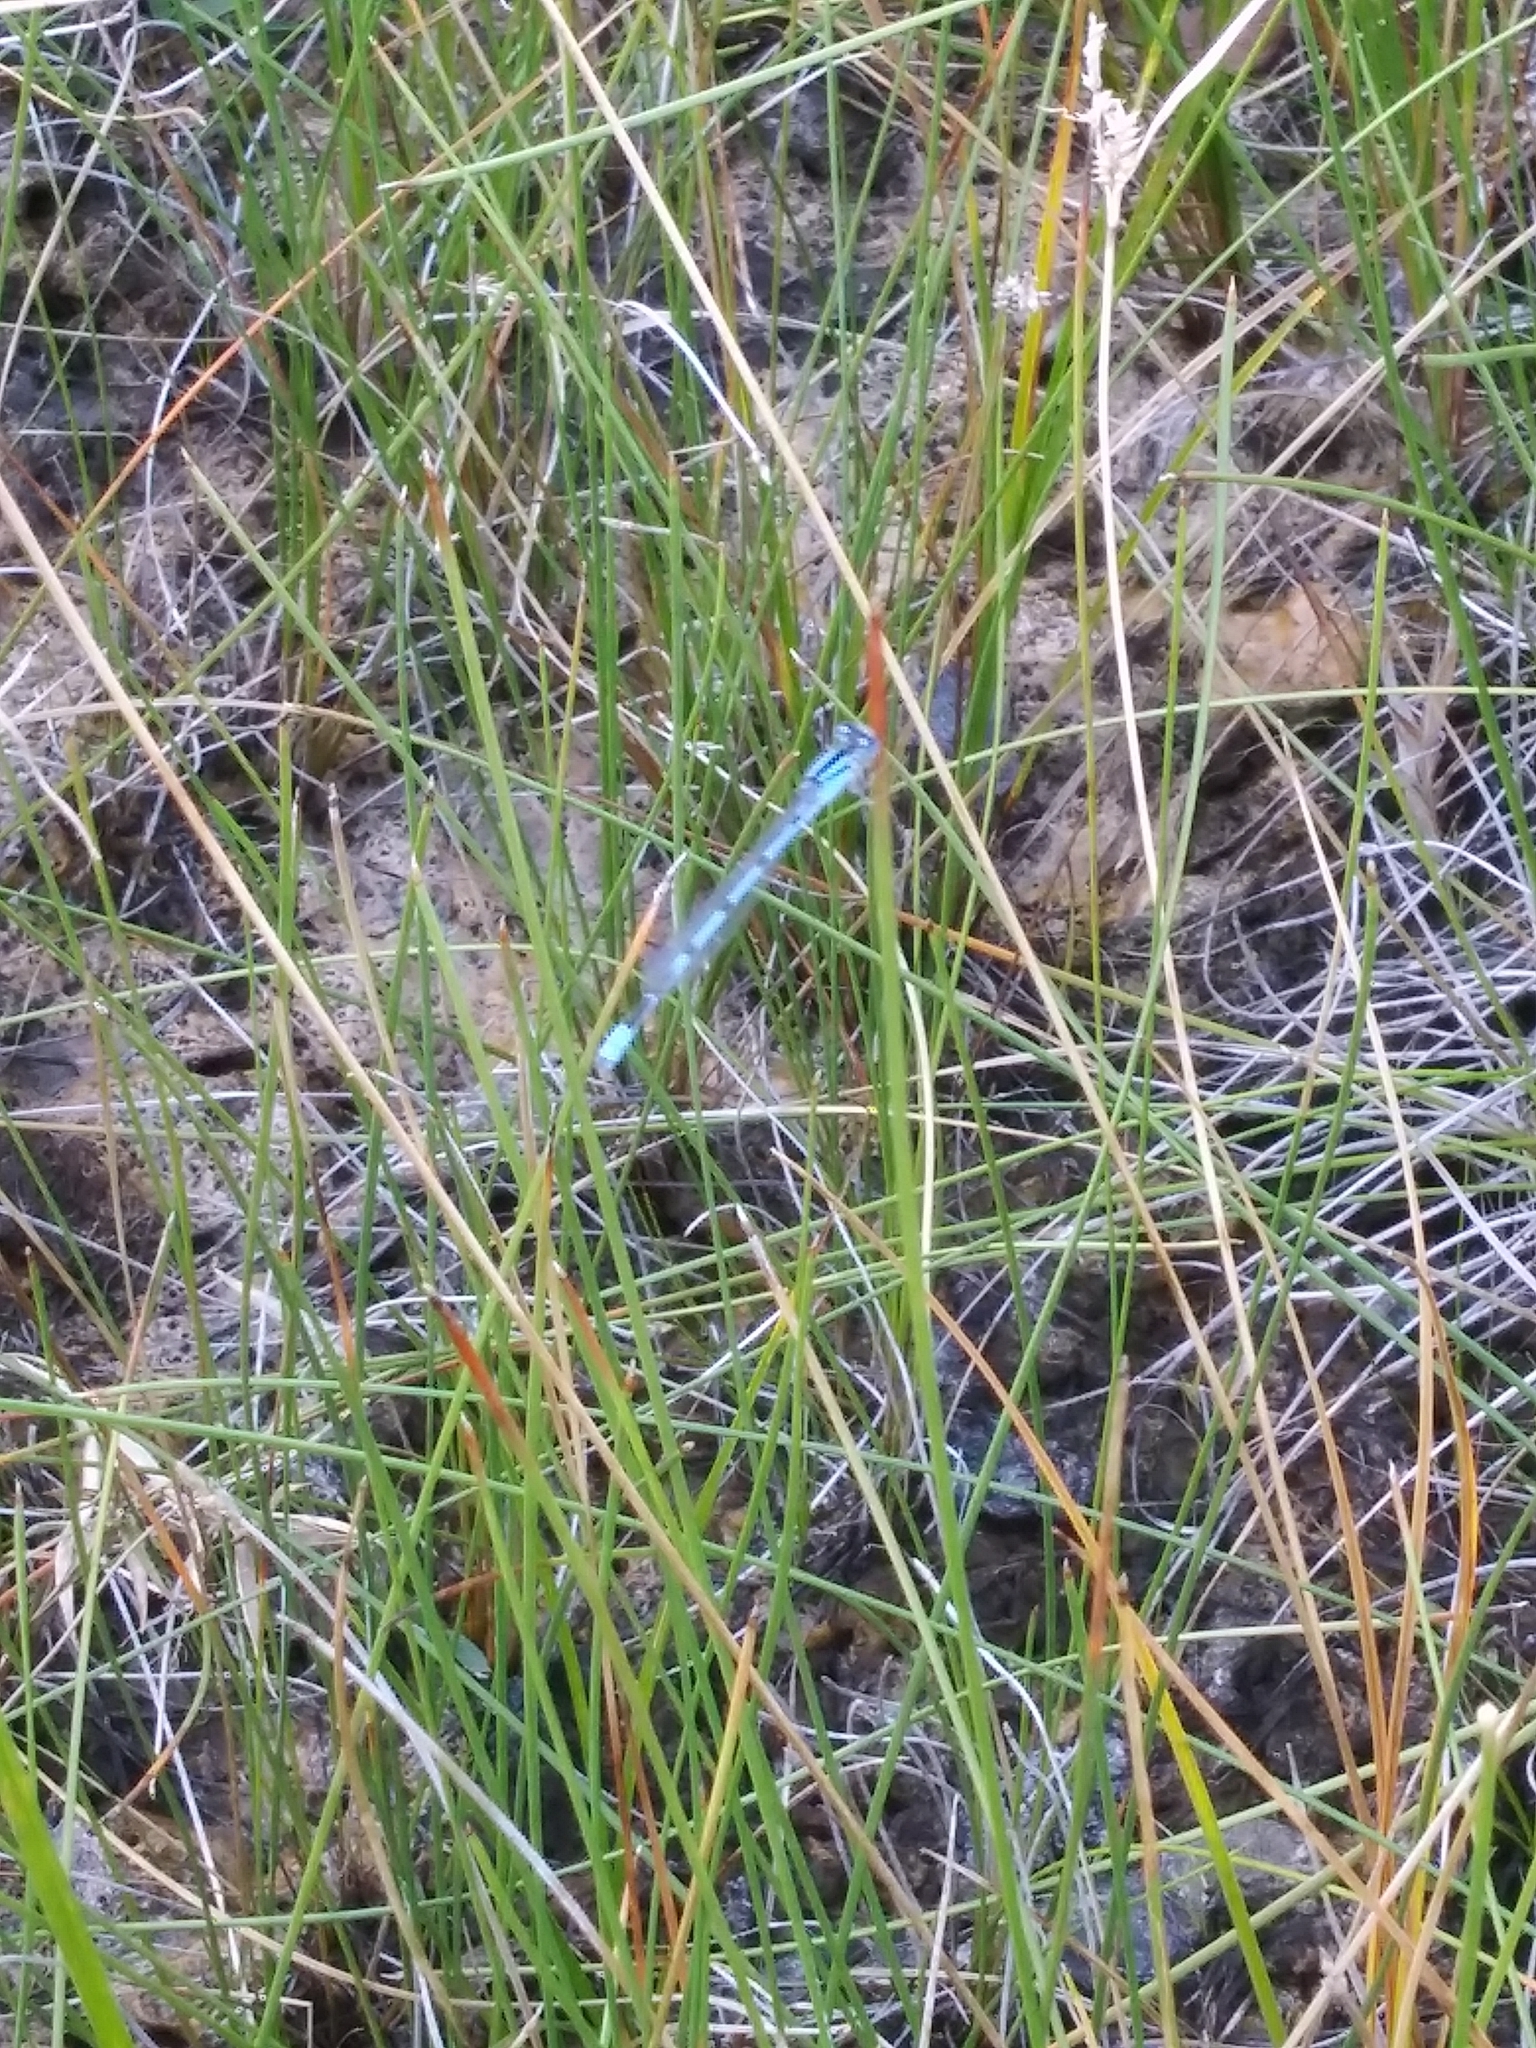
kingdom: Animalia
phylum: Arthropoda
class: Insecta
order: Odonata
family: Coenagrionidae
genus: Enallagma
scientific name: Enallagma
